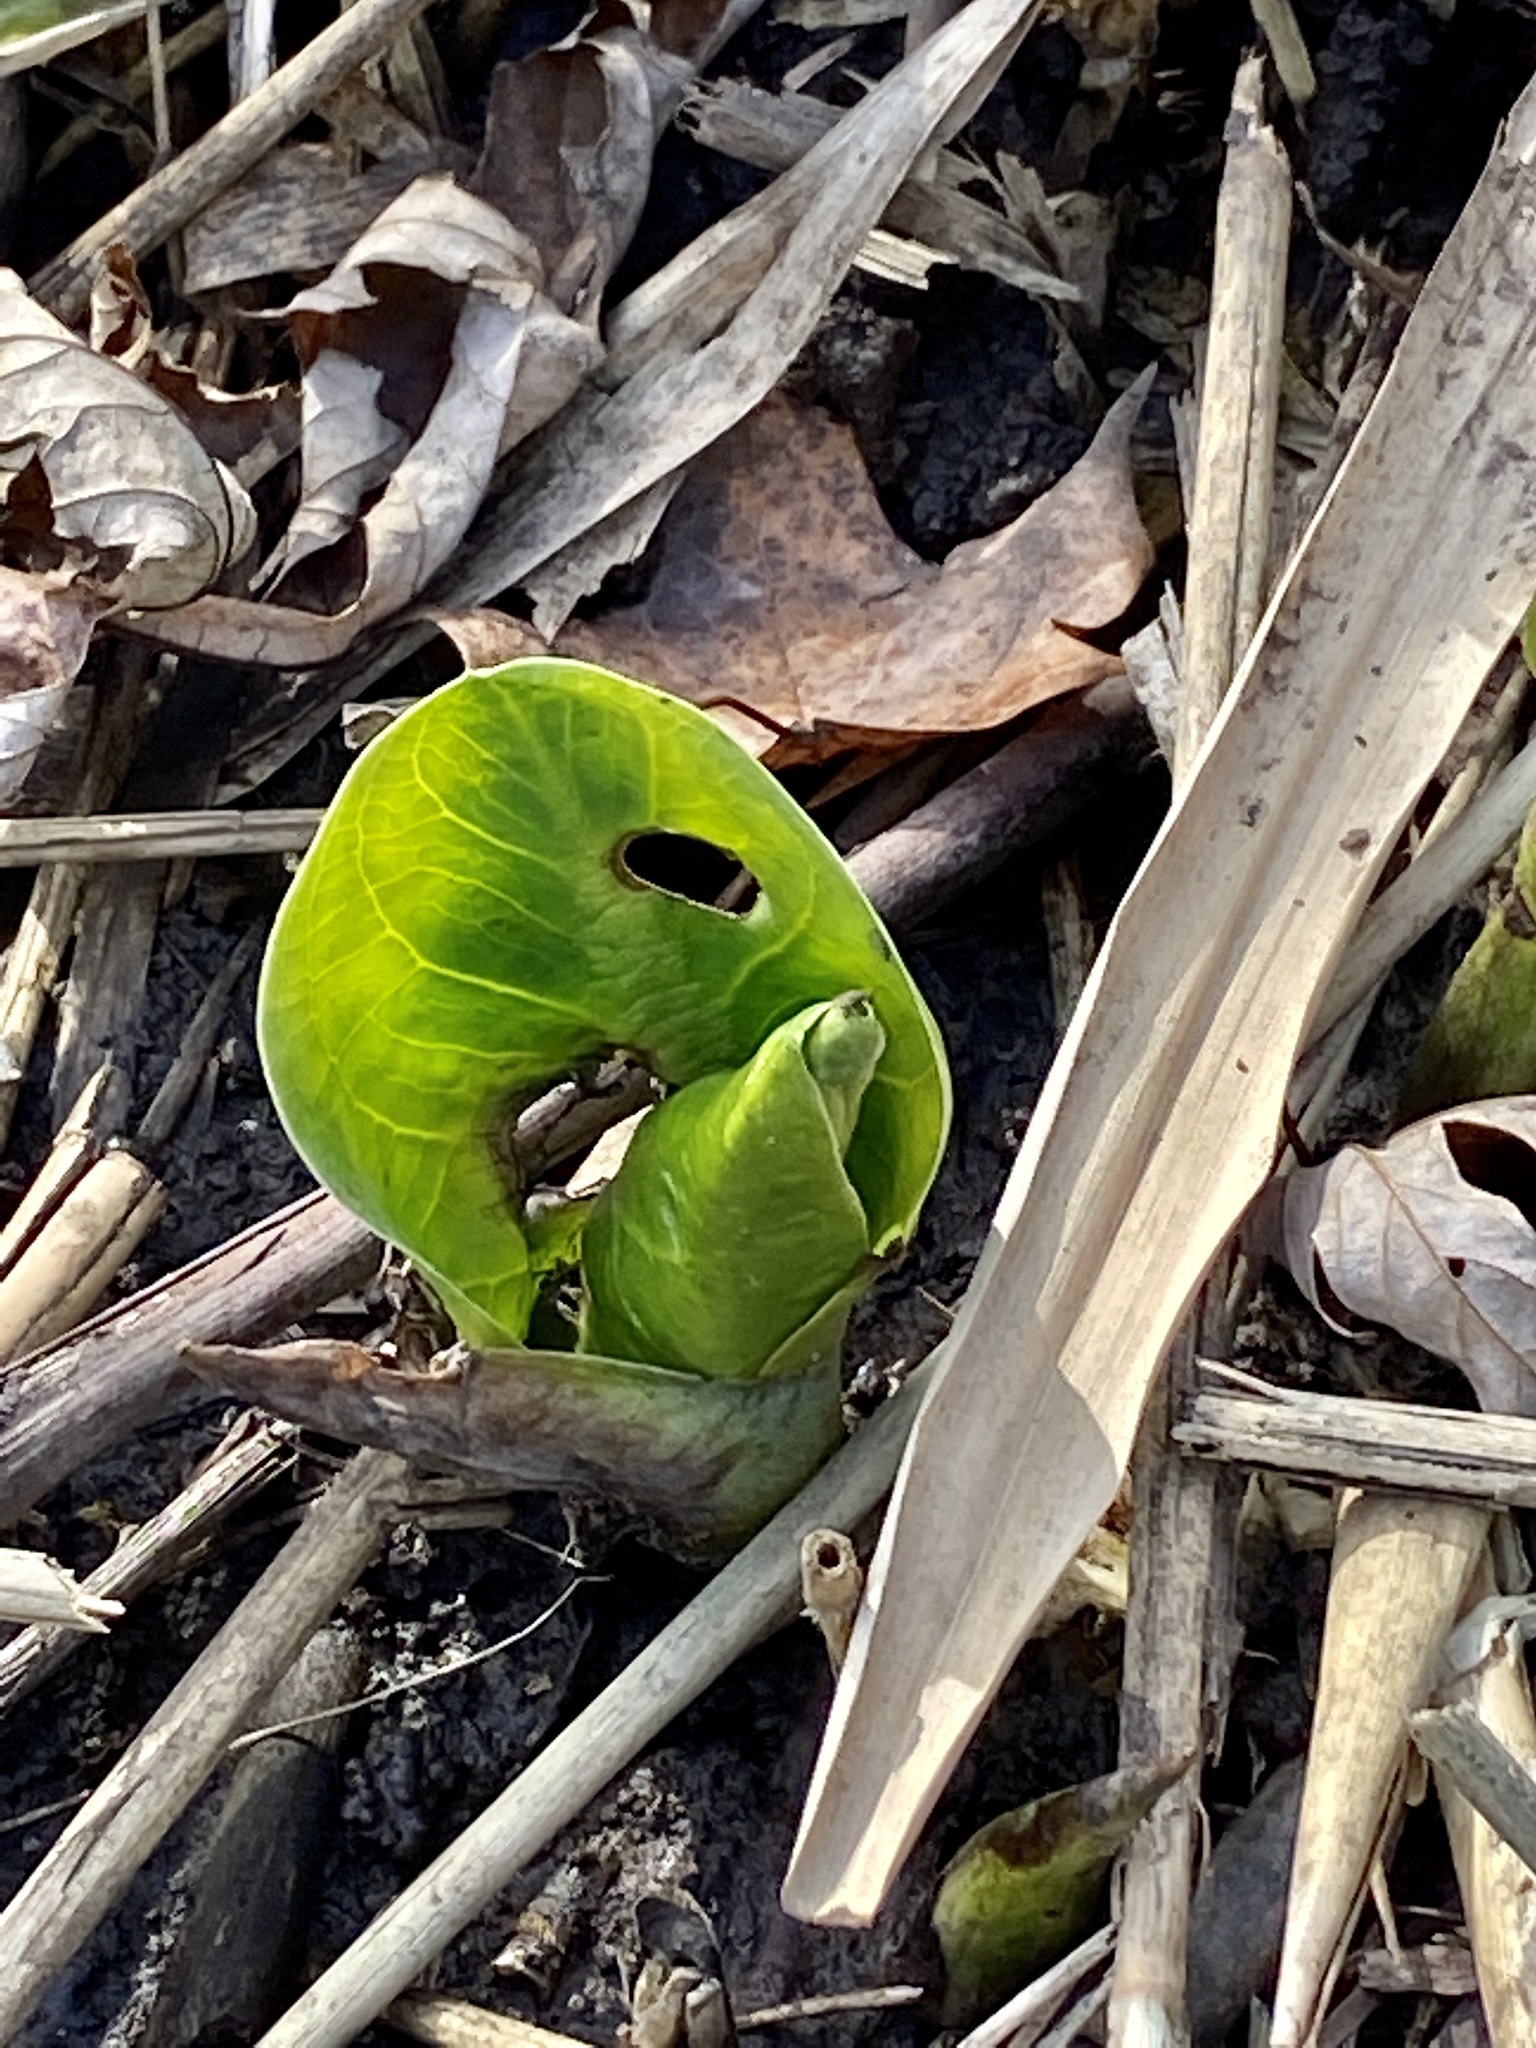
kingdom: Plantae
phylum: Tracheophyta
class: Liliopsida
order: Alismatales
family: Araceae
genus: Symplocarpus
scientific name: Symplocarpus foetidus
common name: Eastern skunk cabbage
